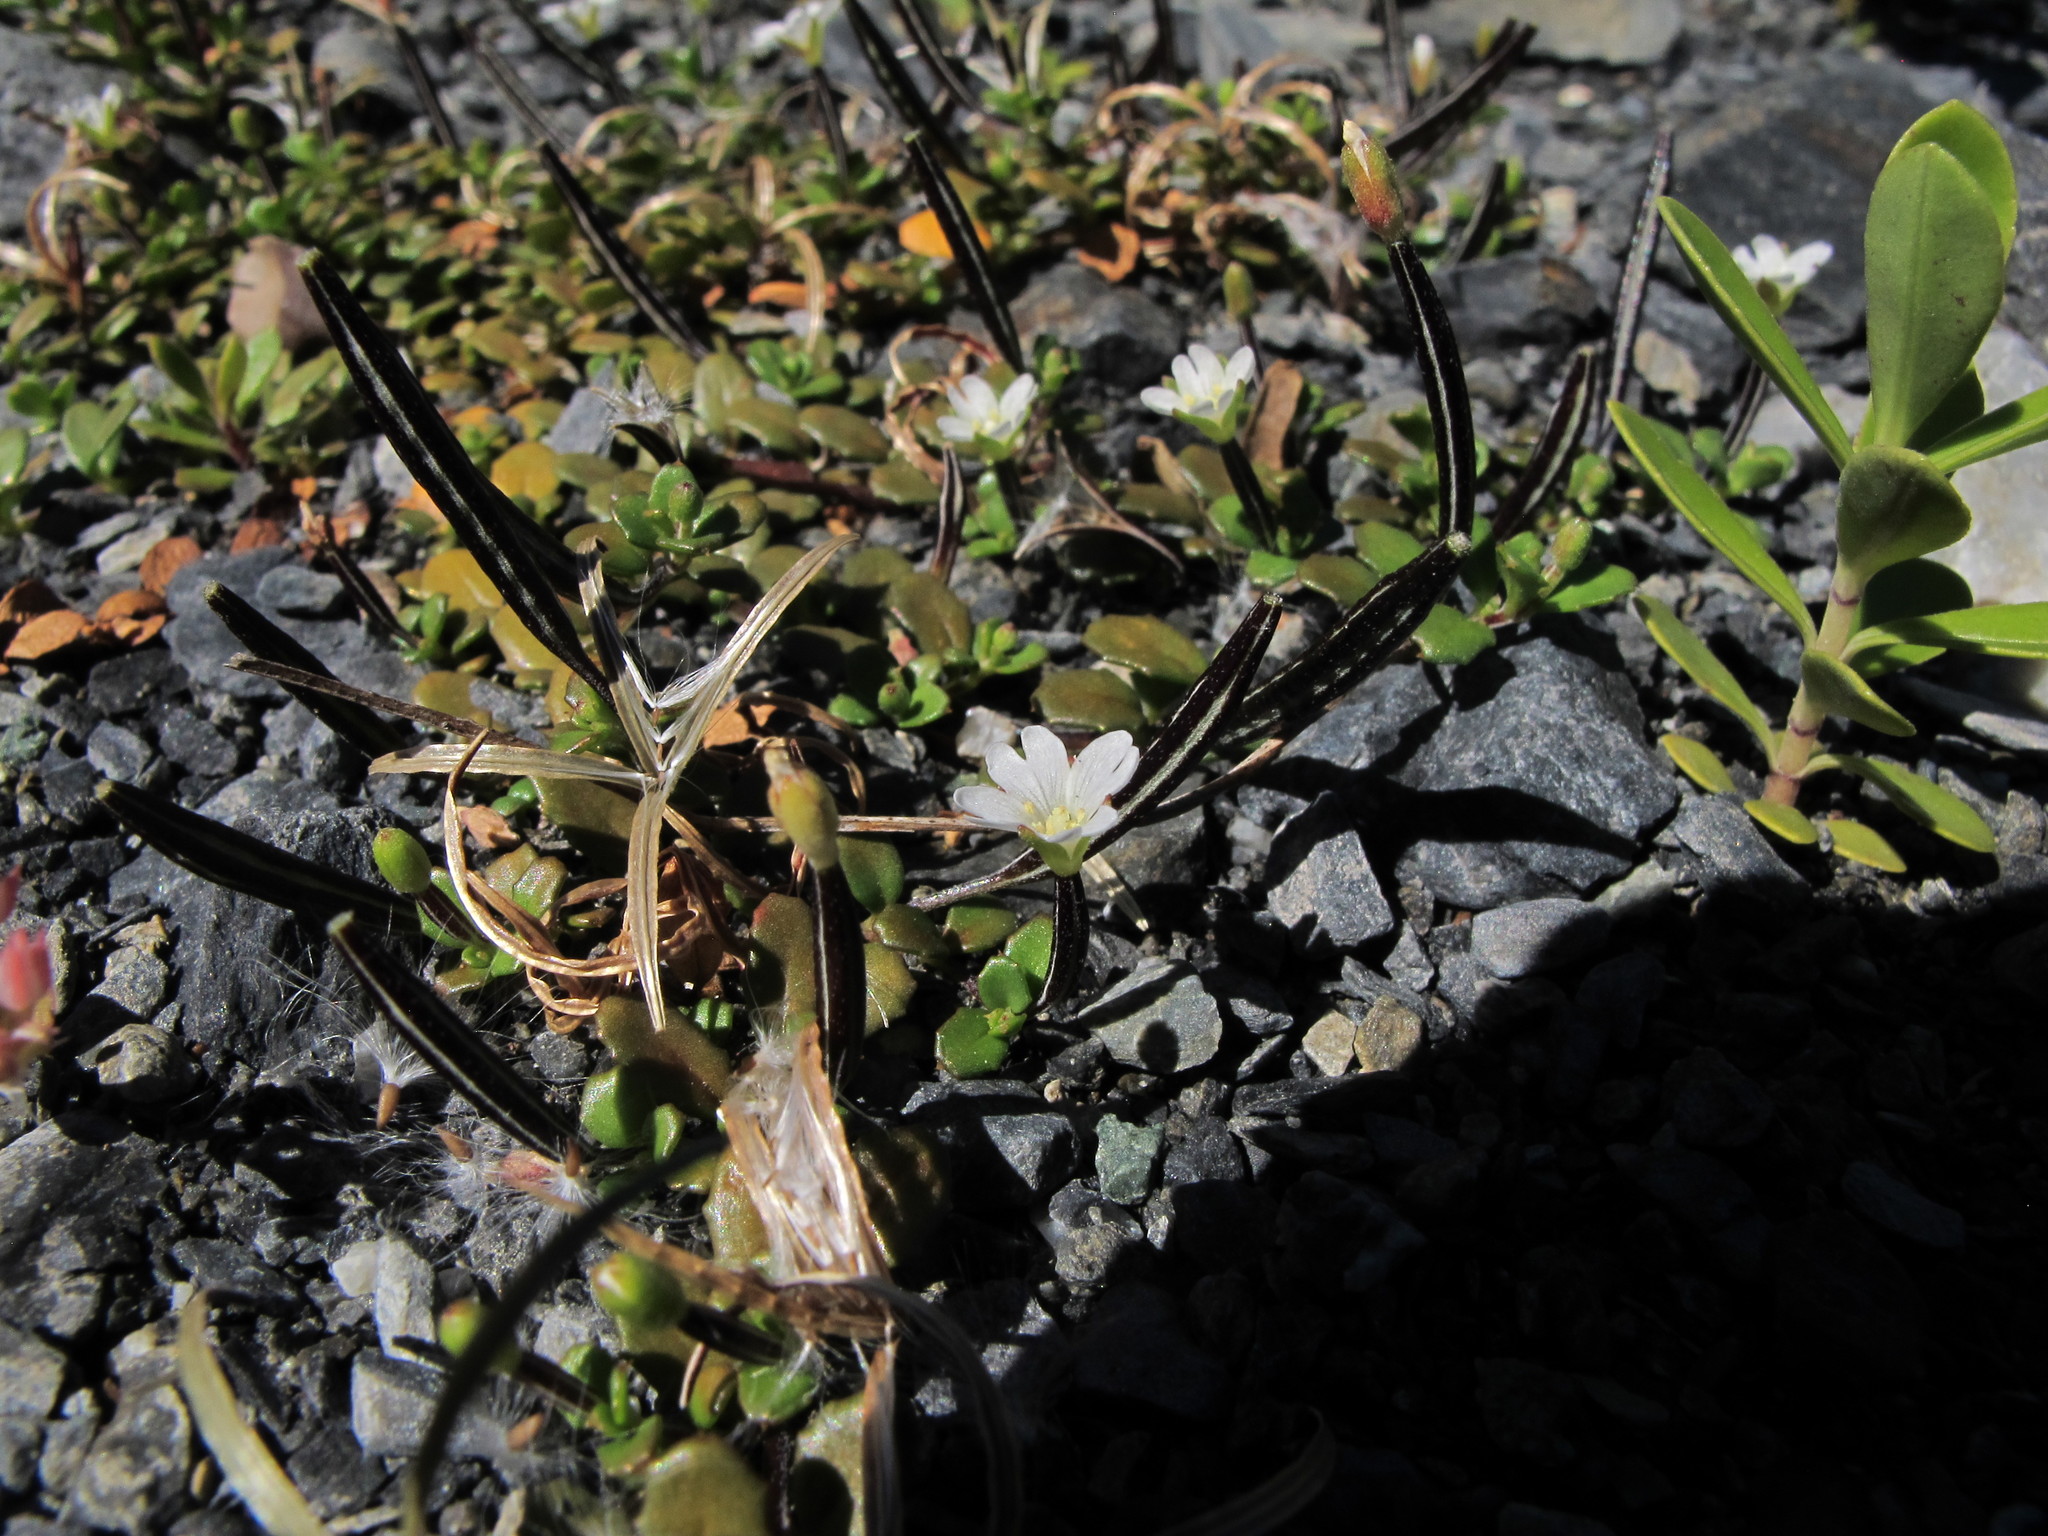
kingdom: Plantae
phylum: Tracheophyta
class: Magnoliopsida
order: Myrtales
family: Onagraceae
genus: Epilobium
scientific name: Epilobium microphyllum
